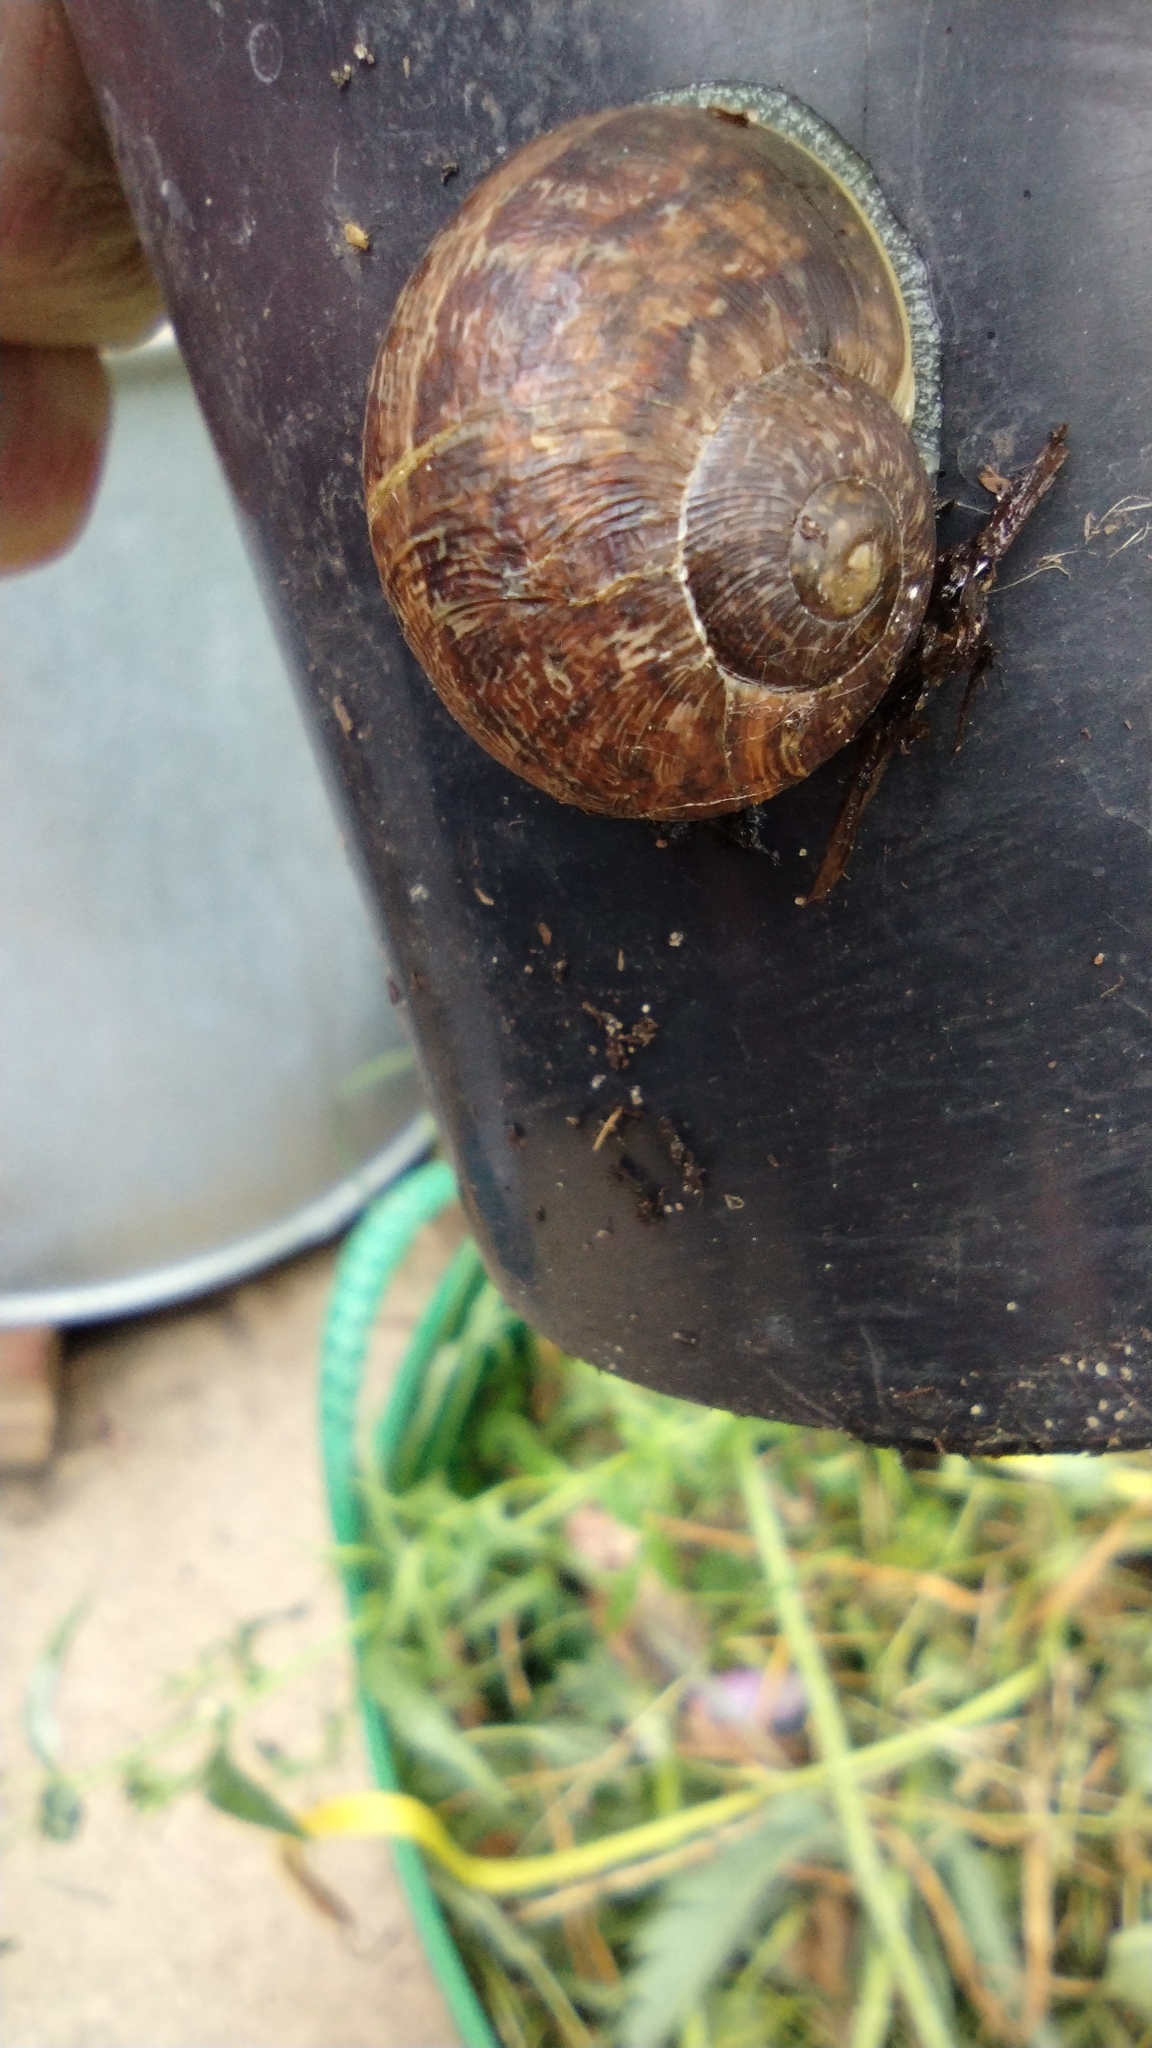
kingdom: Animalia
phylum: Mollusca
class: Gastropoda
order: Stylommatophora
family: Helicidae
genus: Cornu
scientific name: Cornu aspersum
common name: Brown garden snail
